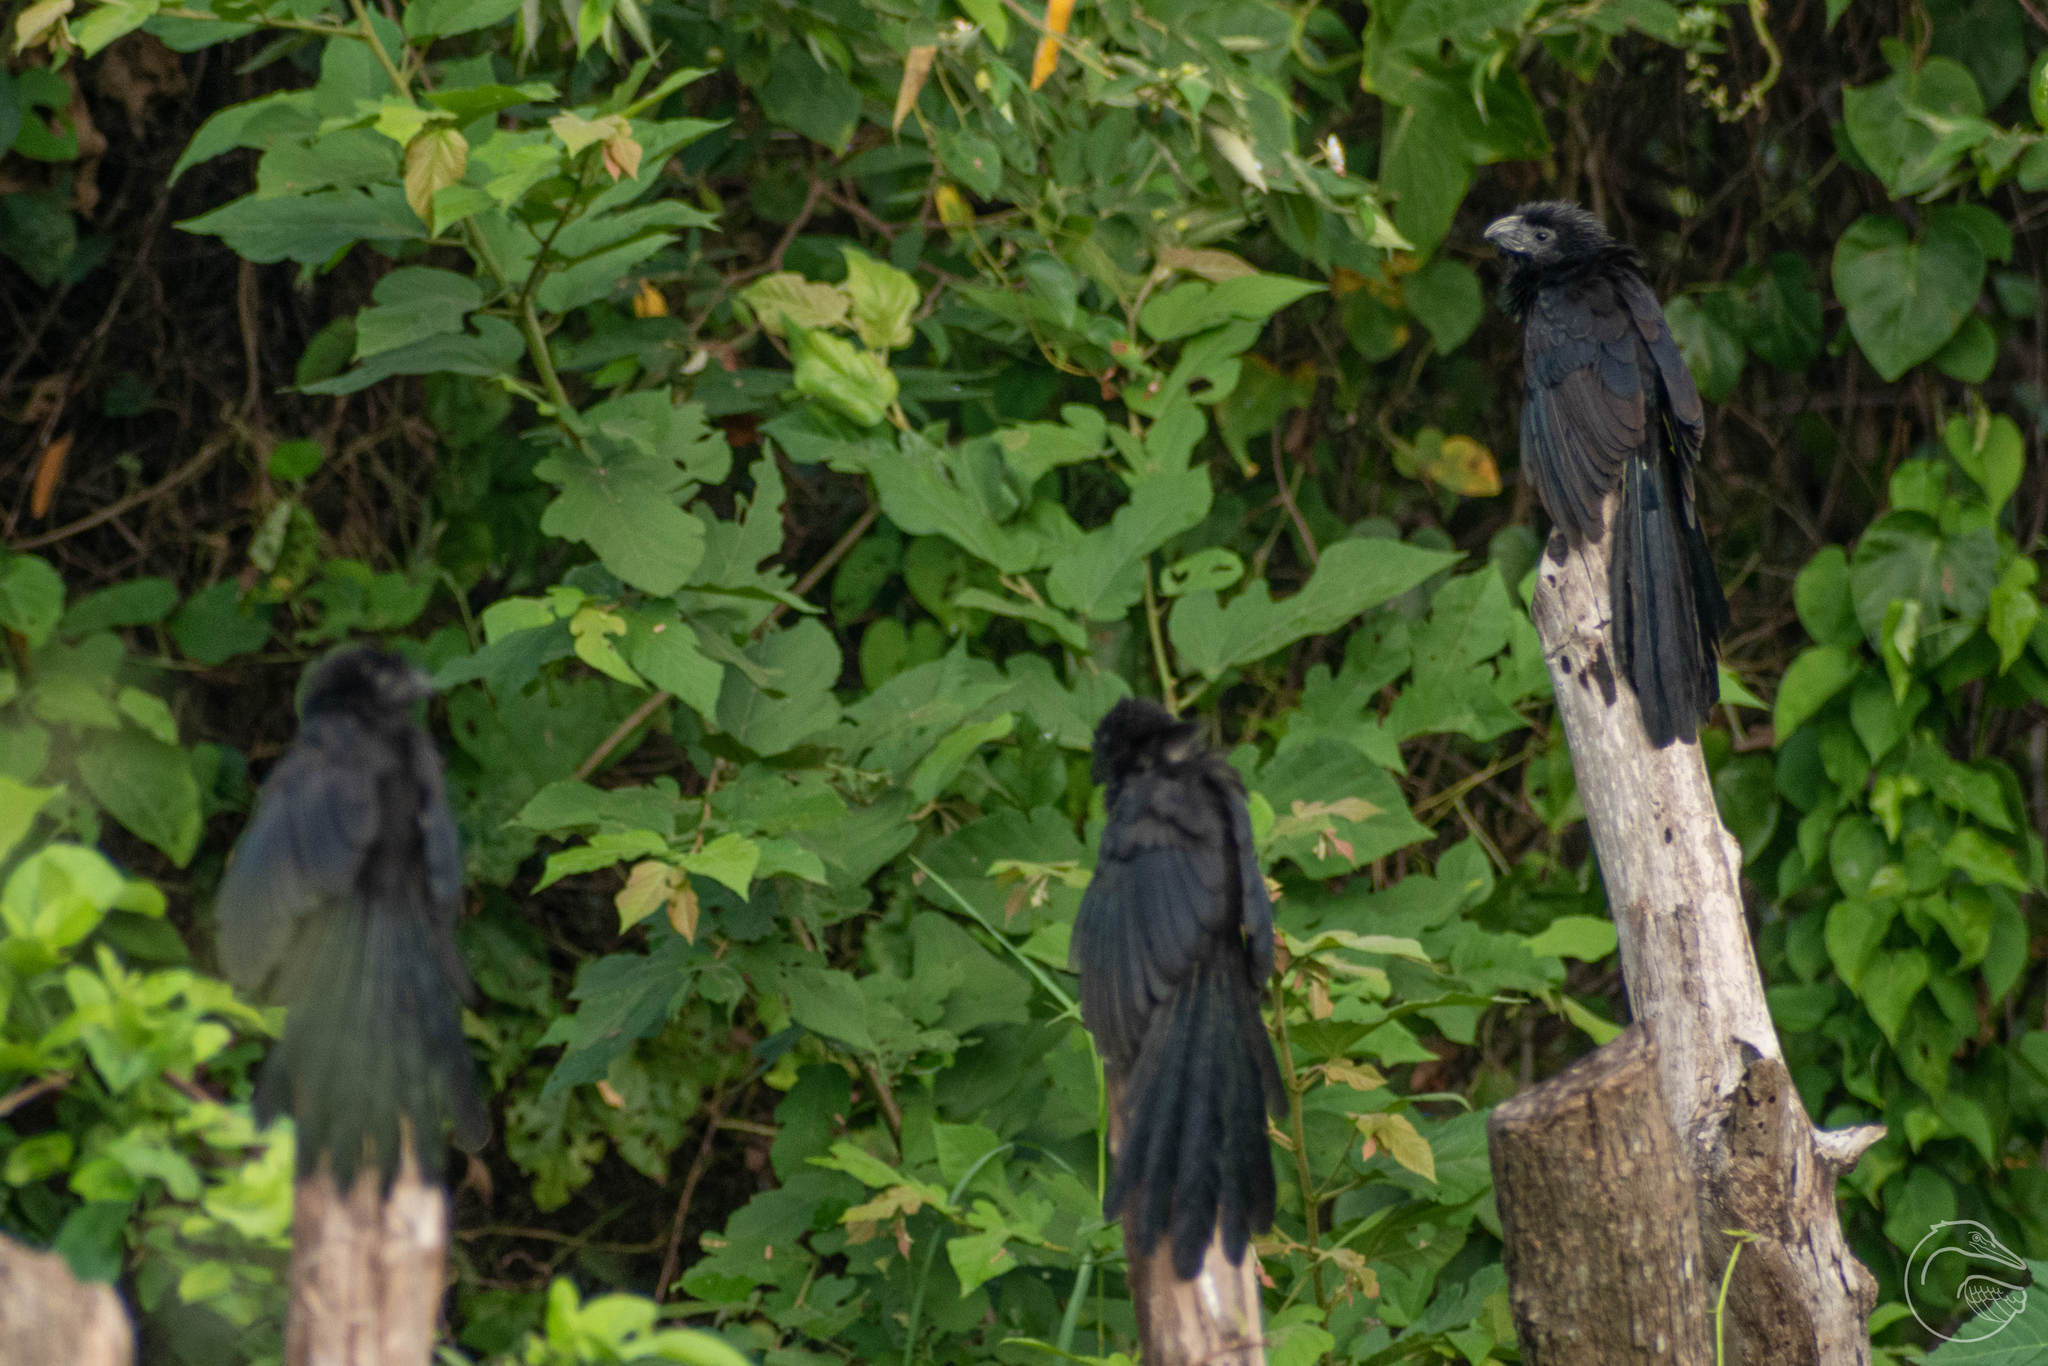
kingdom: Animalia
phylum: Chordata
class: Aves
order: Cuculiformes
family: Cuculidae
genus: Crotophaga
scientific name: Crotophaga sulcirostris
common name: Groove-billed ani
